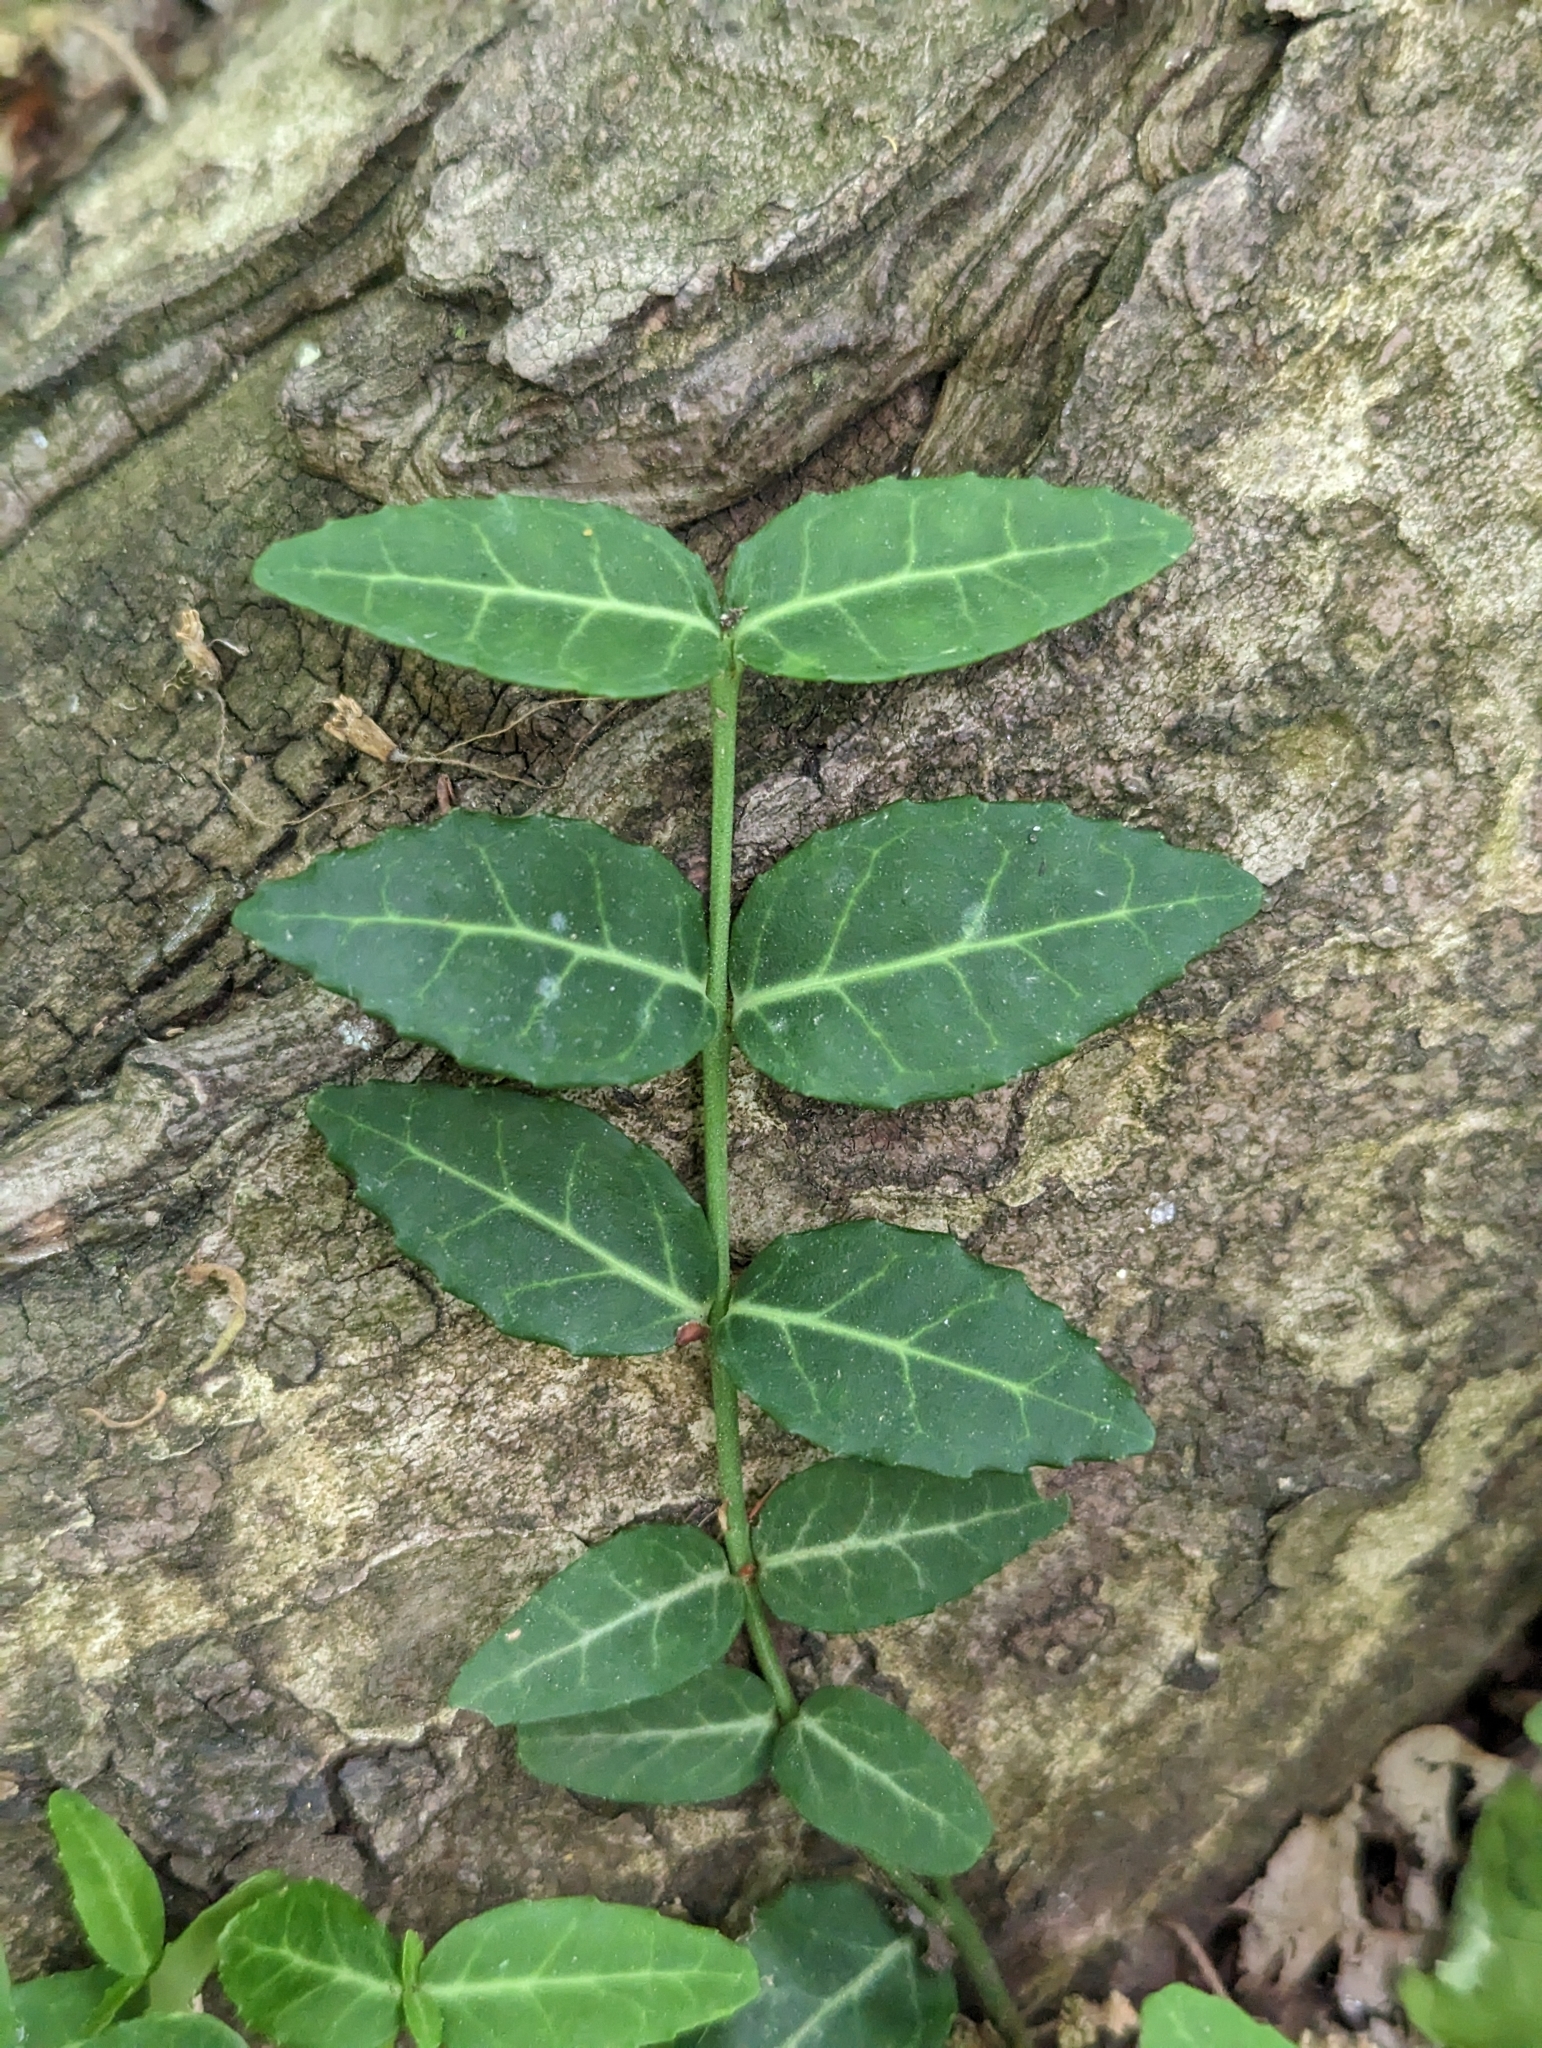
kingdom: Plantae
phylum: Tracheophyta
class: Magnoliopsida
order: Celastrales
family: Celastraceae
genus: Euonymus
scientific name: Euonymus fortunei
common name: Climbing euonymus
